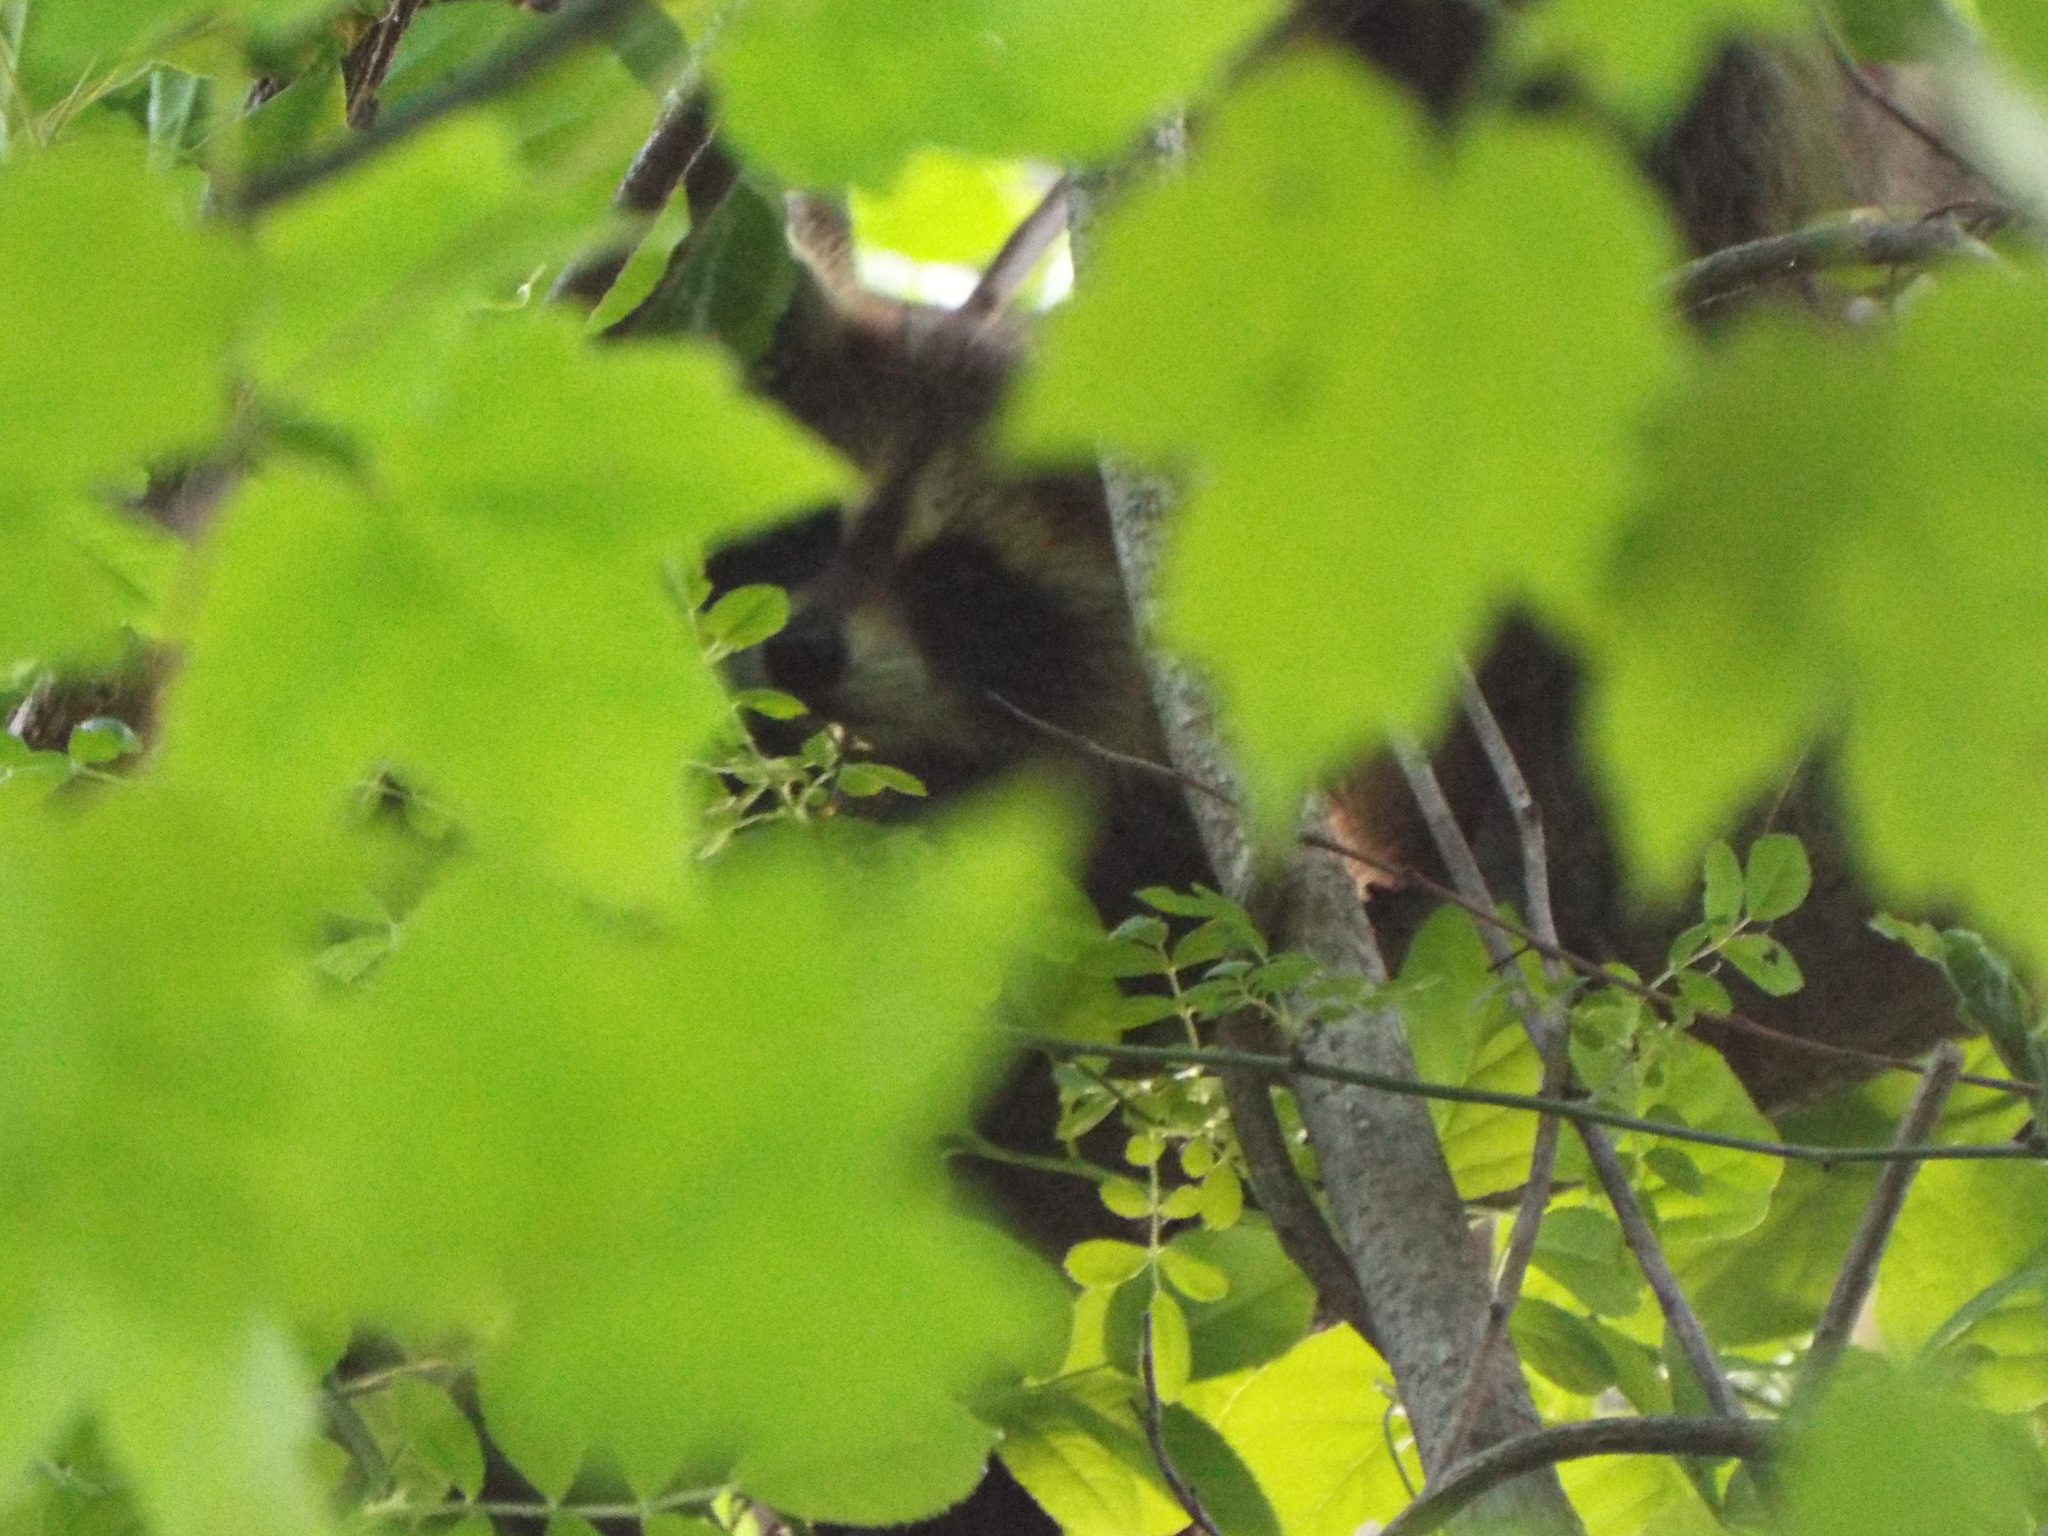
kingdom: Animalia
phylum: Chordata
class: Mammalia
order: Carnivora
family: Procyonidae
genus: Procyon
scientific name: Procyon lotor
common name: Raccoon
